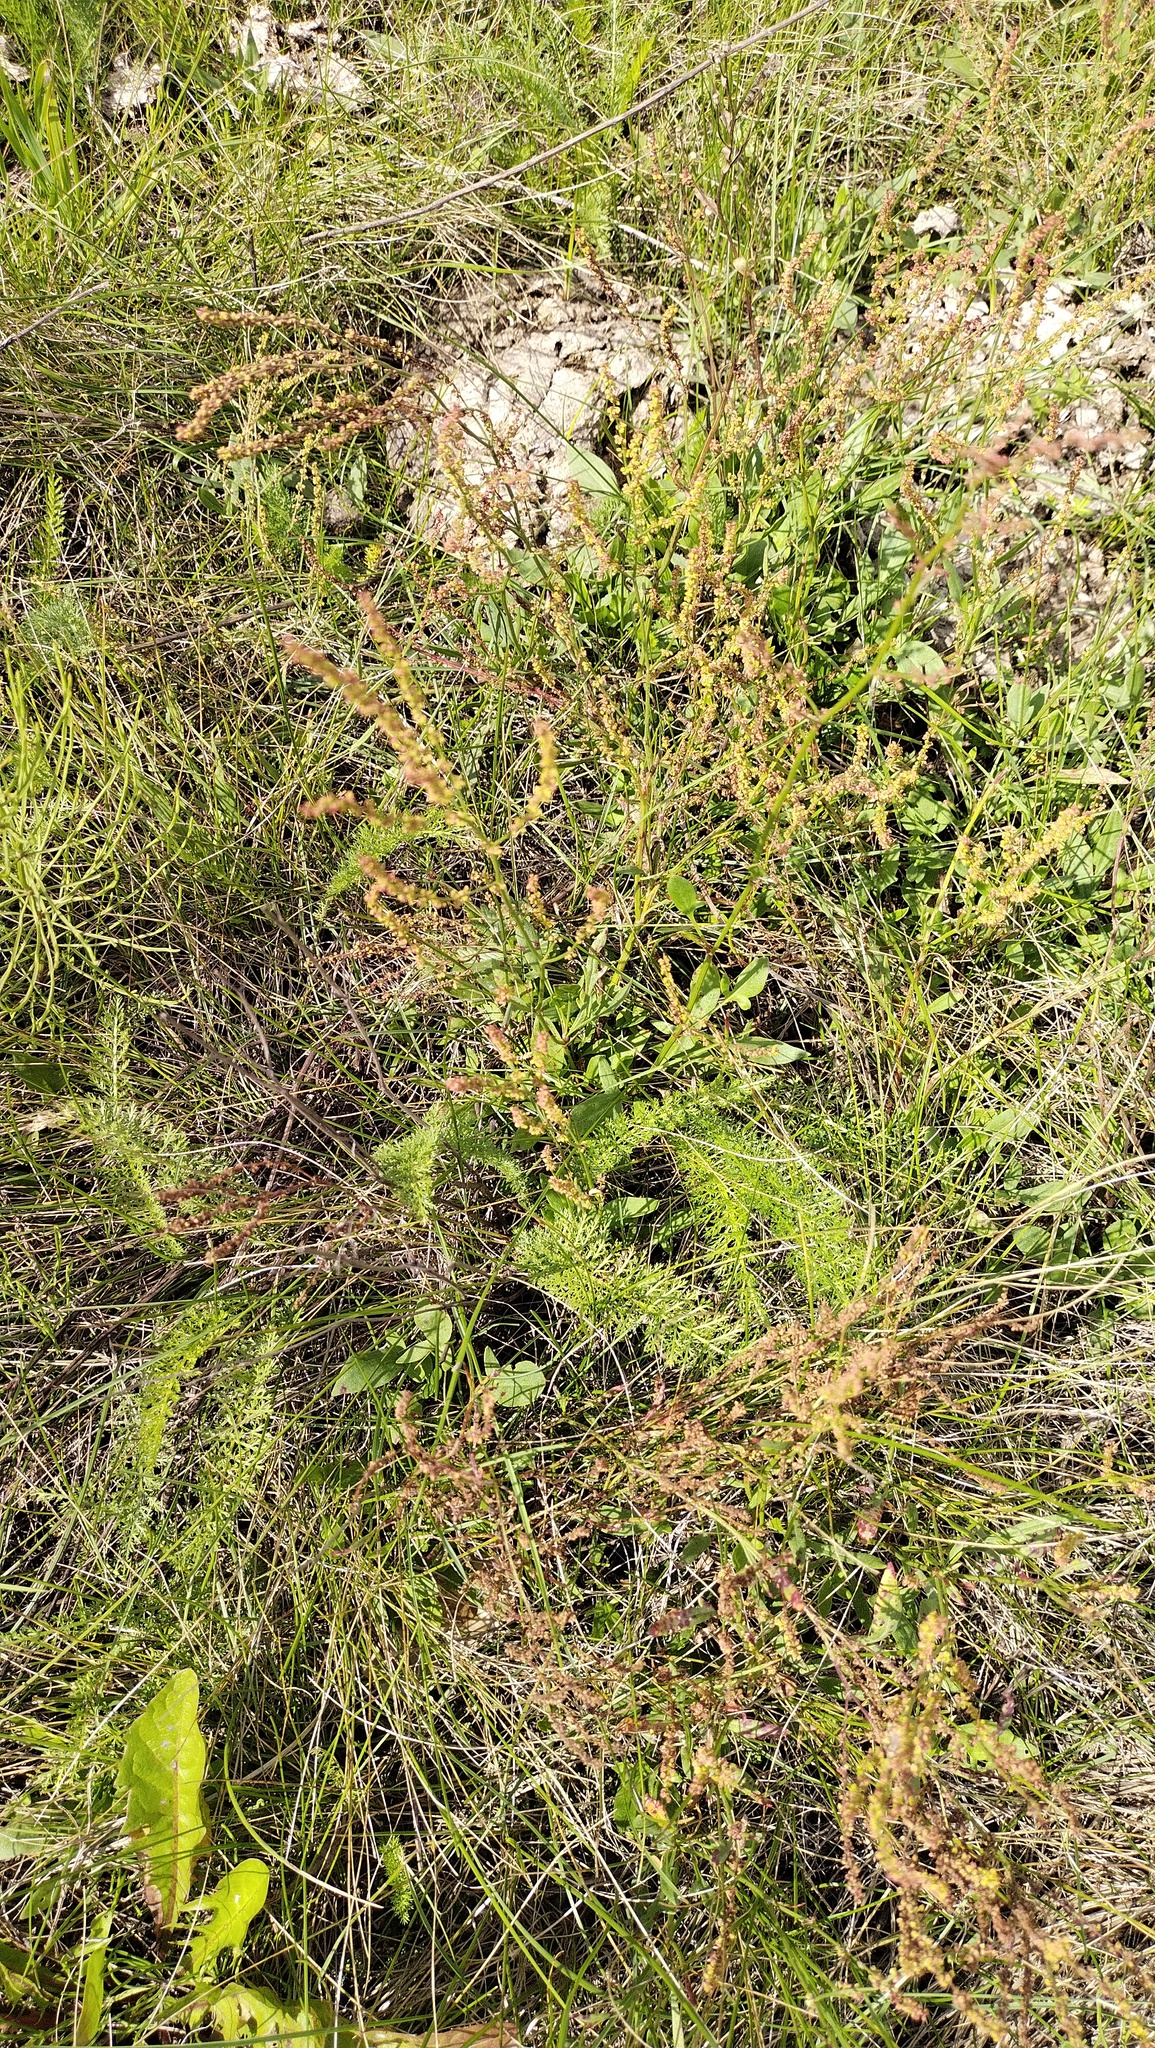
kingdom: Plantae
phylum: Tracheophyta
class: Magnoliopsida
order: Caryophyllales
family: Polygonaceae
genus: Rumex
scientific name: Rumex acetosella
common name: Common sheep sorrel
